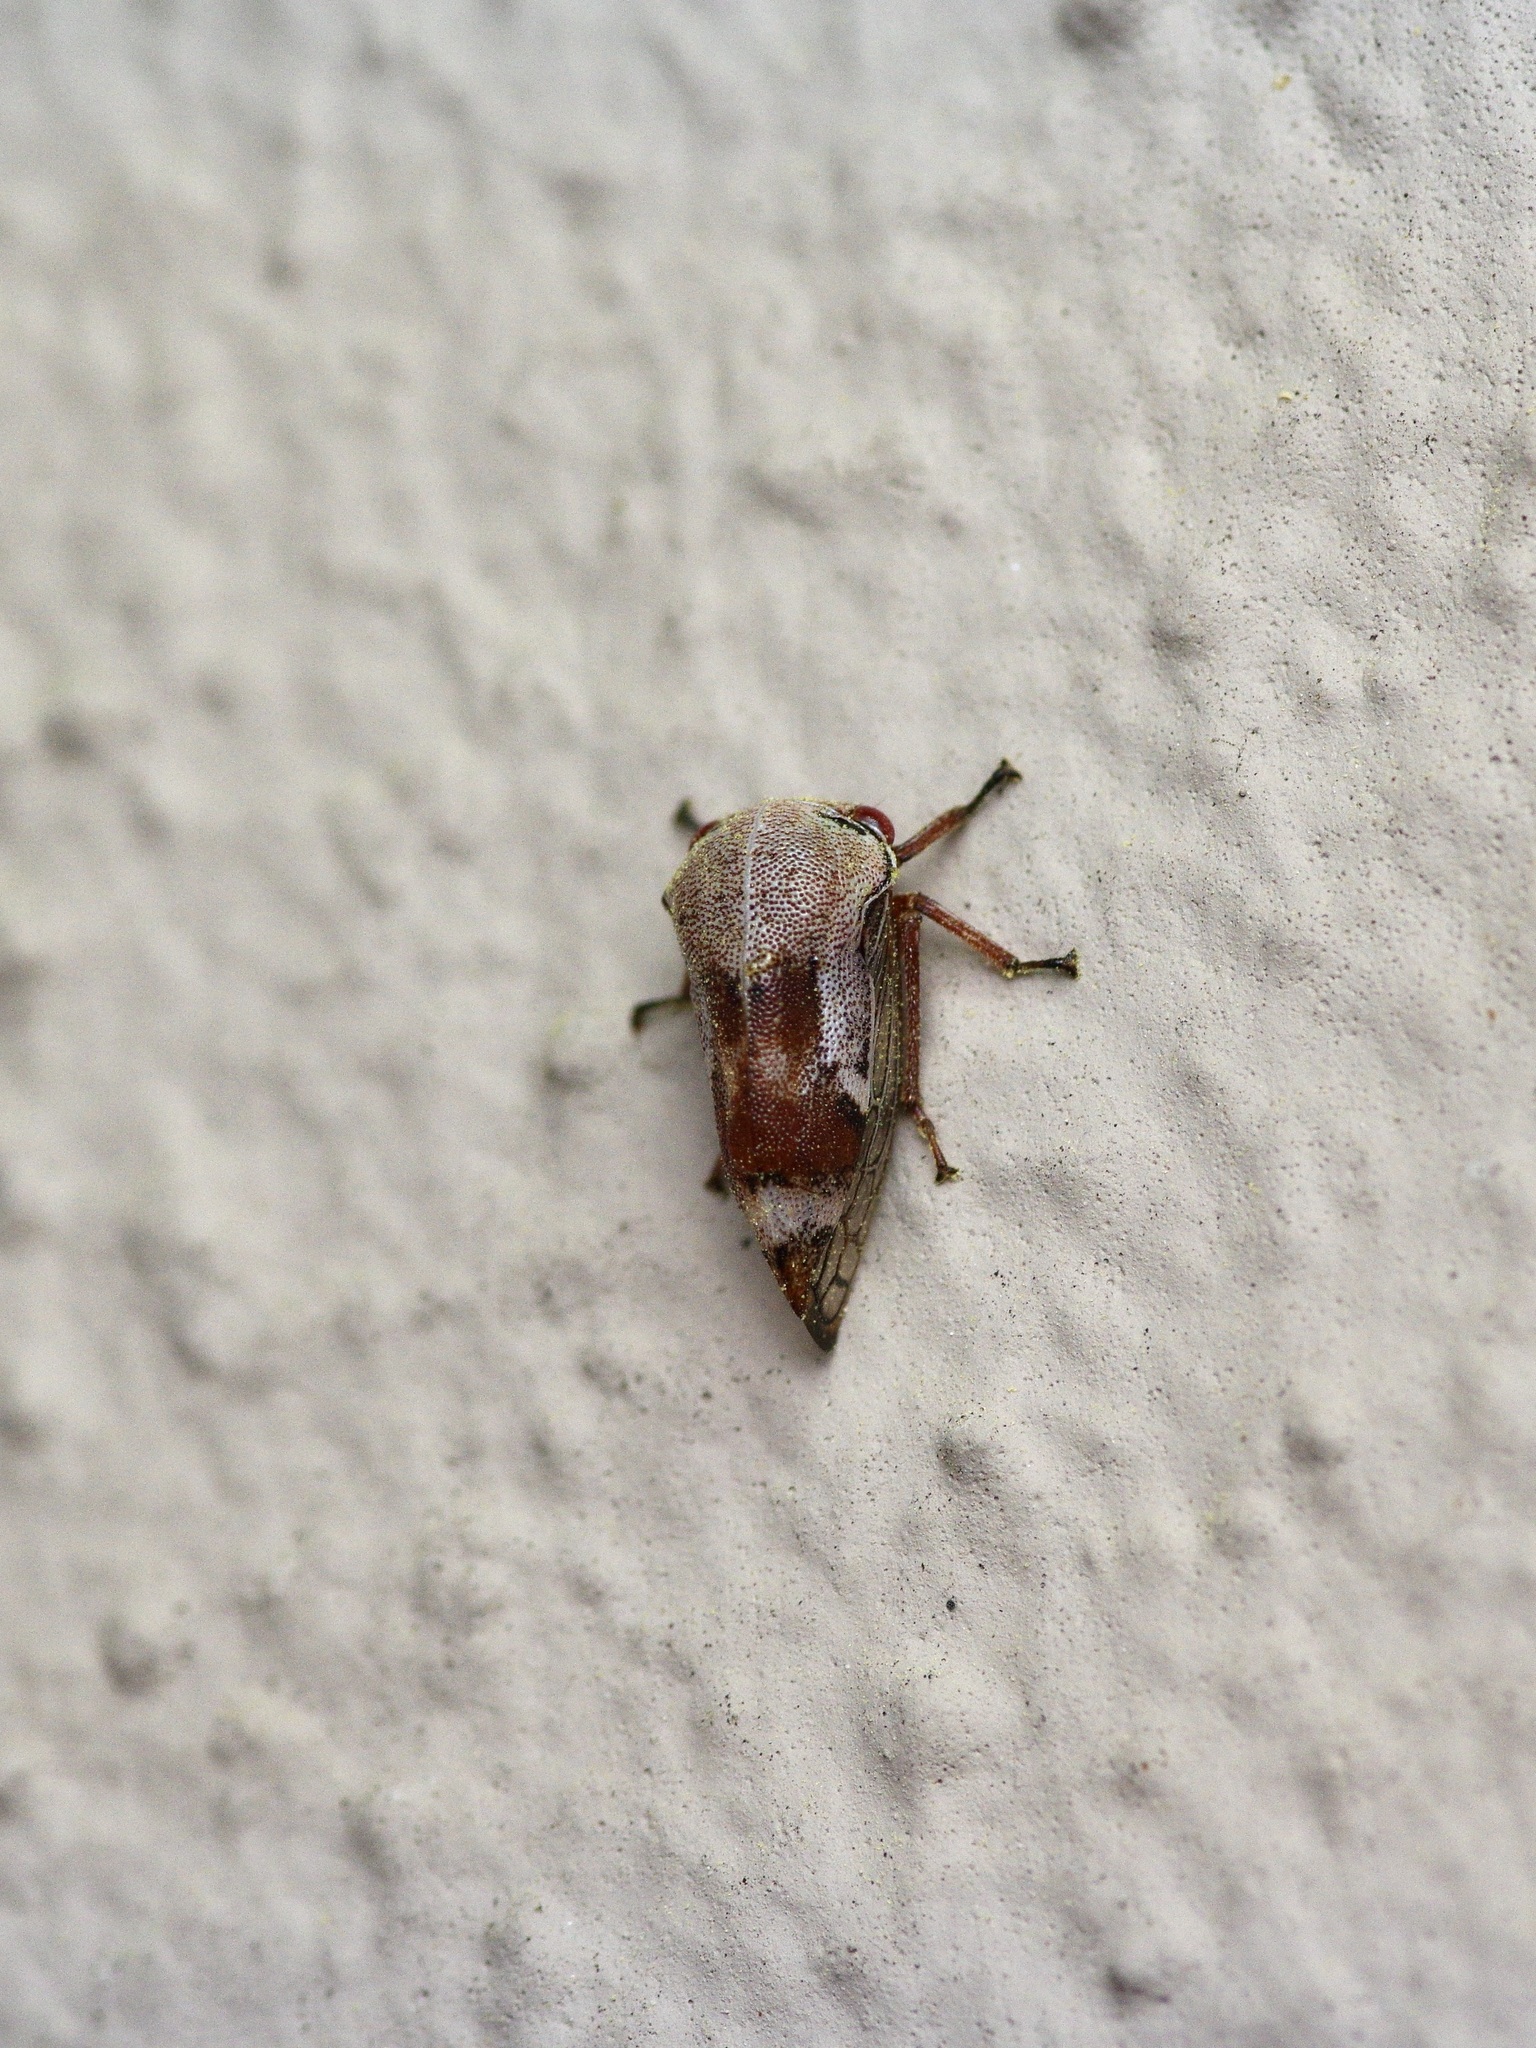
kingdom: Animalia
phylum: Arthropoda
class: Insecta
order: Hemiptera
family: Membracidae
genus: Xantholobus
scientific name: Xantholobus nigrocincta
